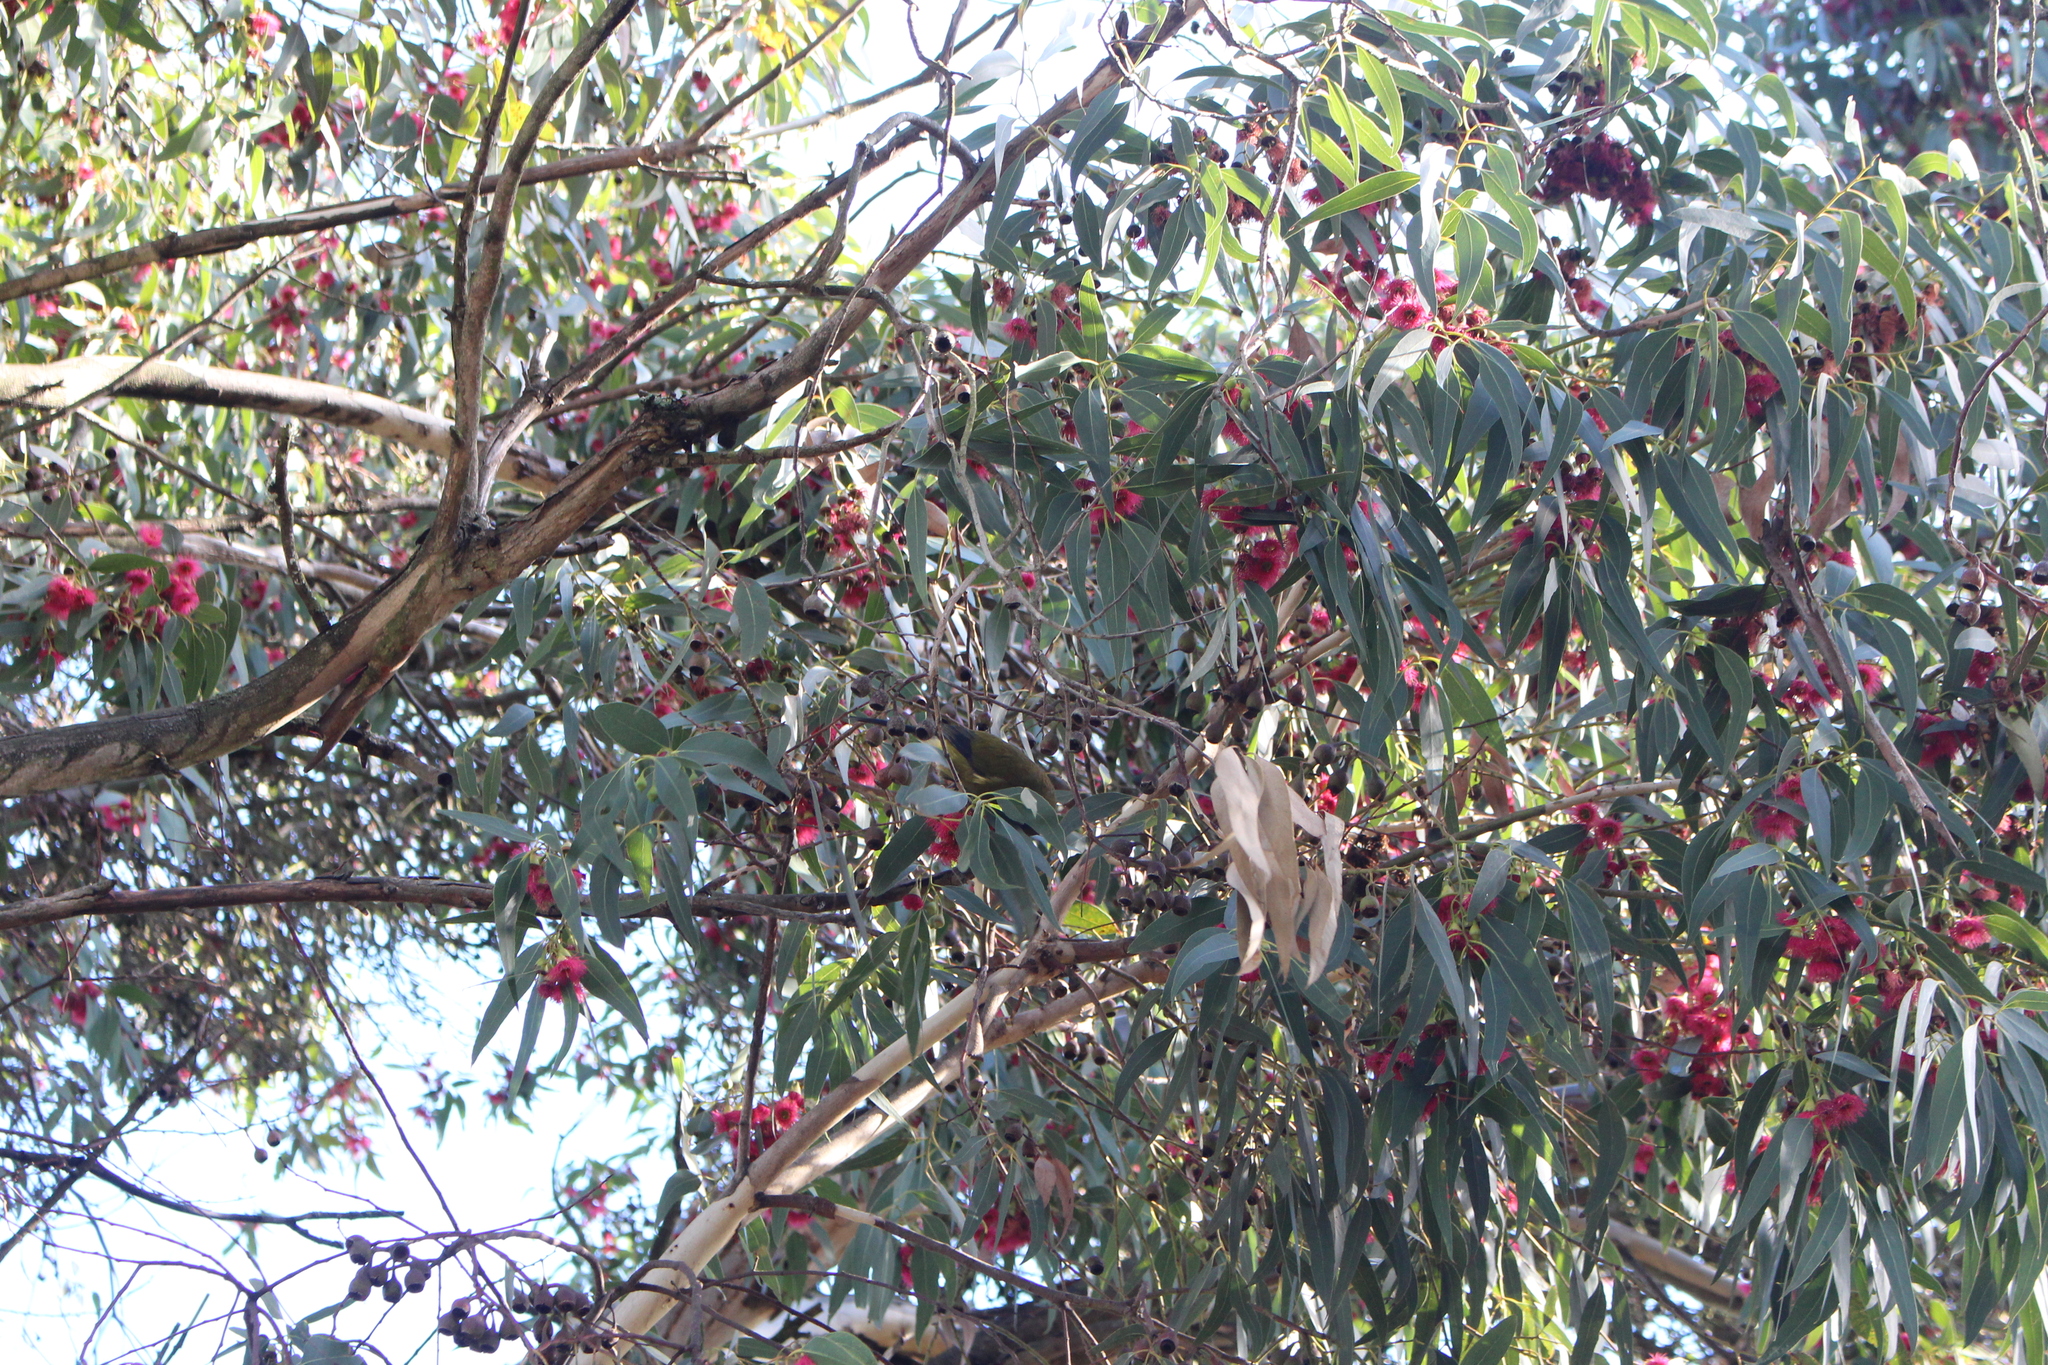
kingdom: Animalia
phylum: Chordata
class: Aves
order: Passeriformes
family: Meliphagidae
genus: Anthornis
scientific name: Anthornis melanura
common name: New zealand bellbird
